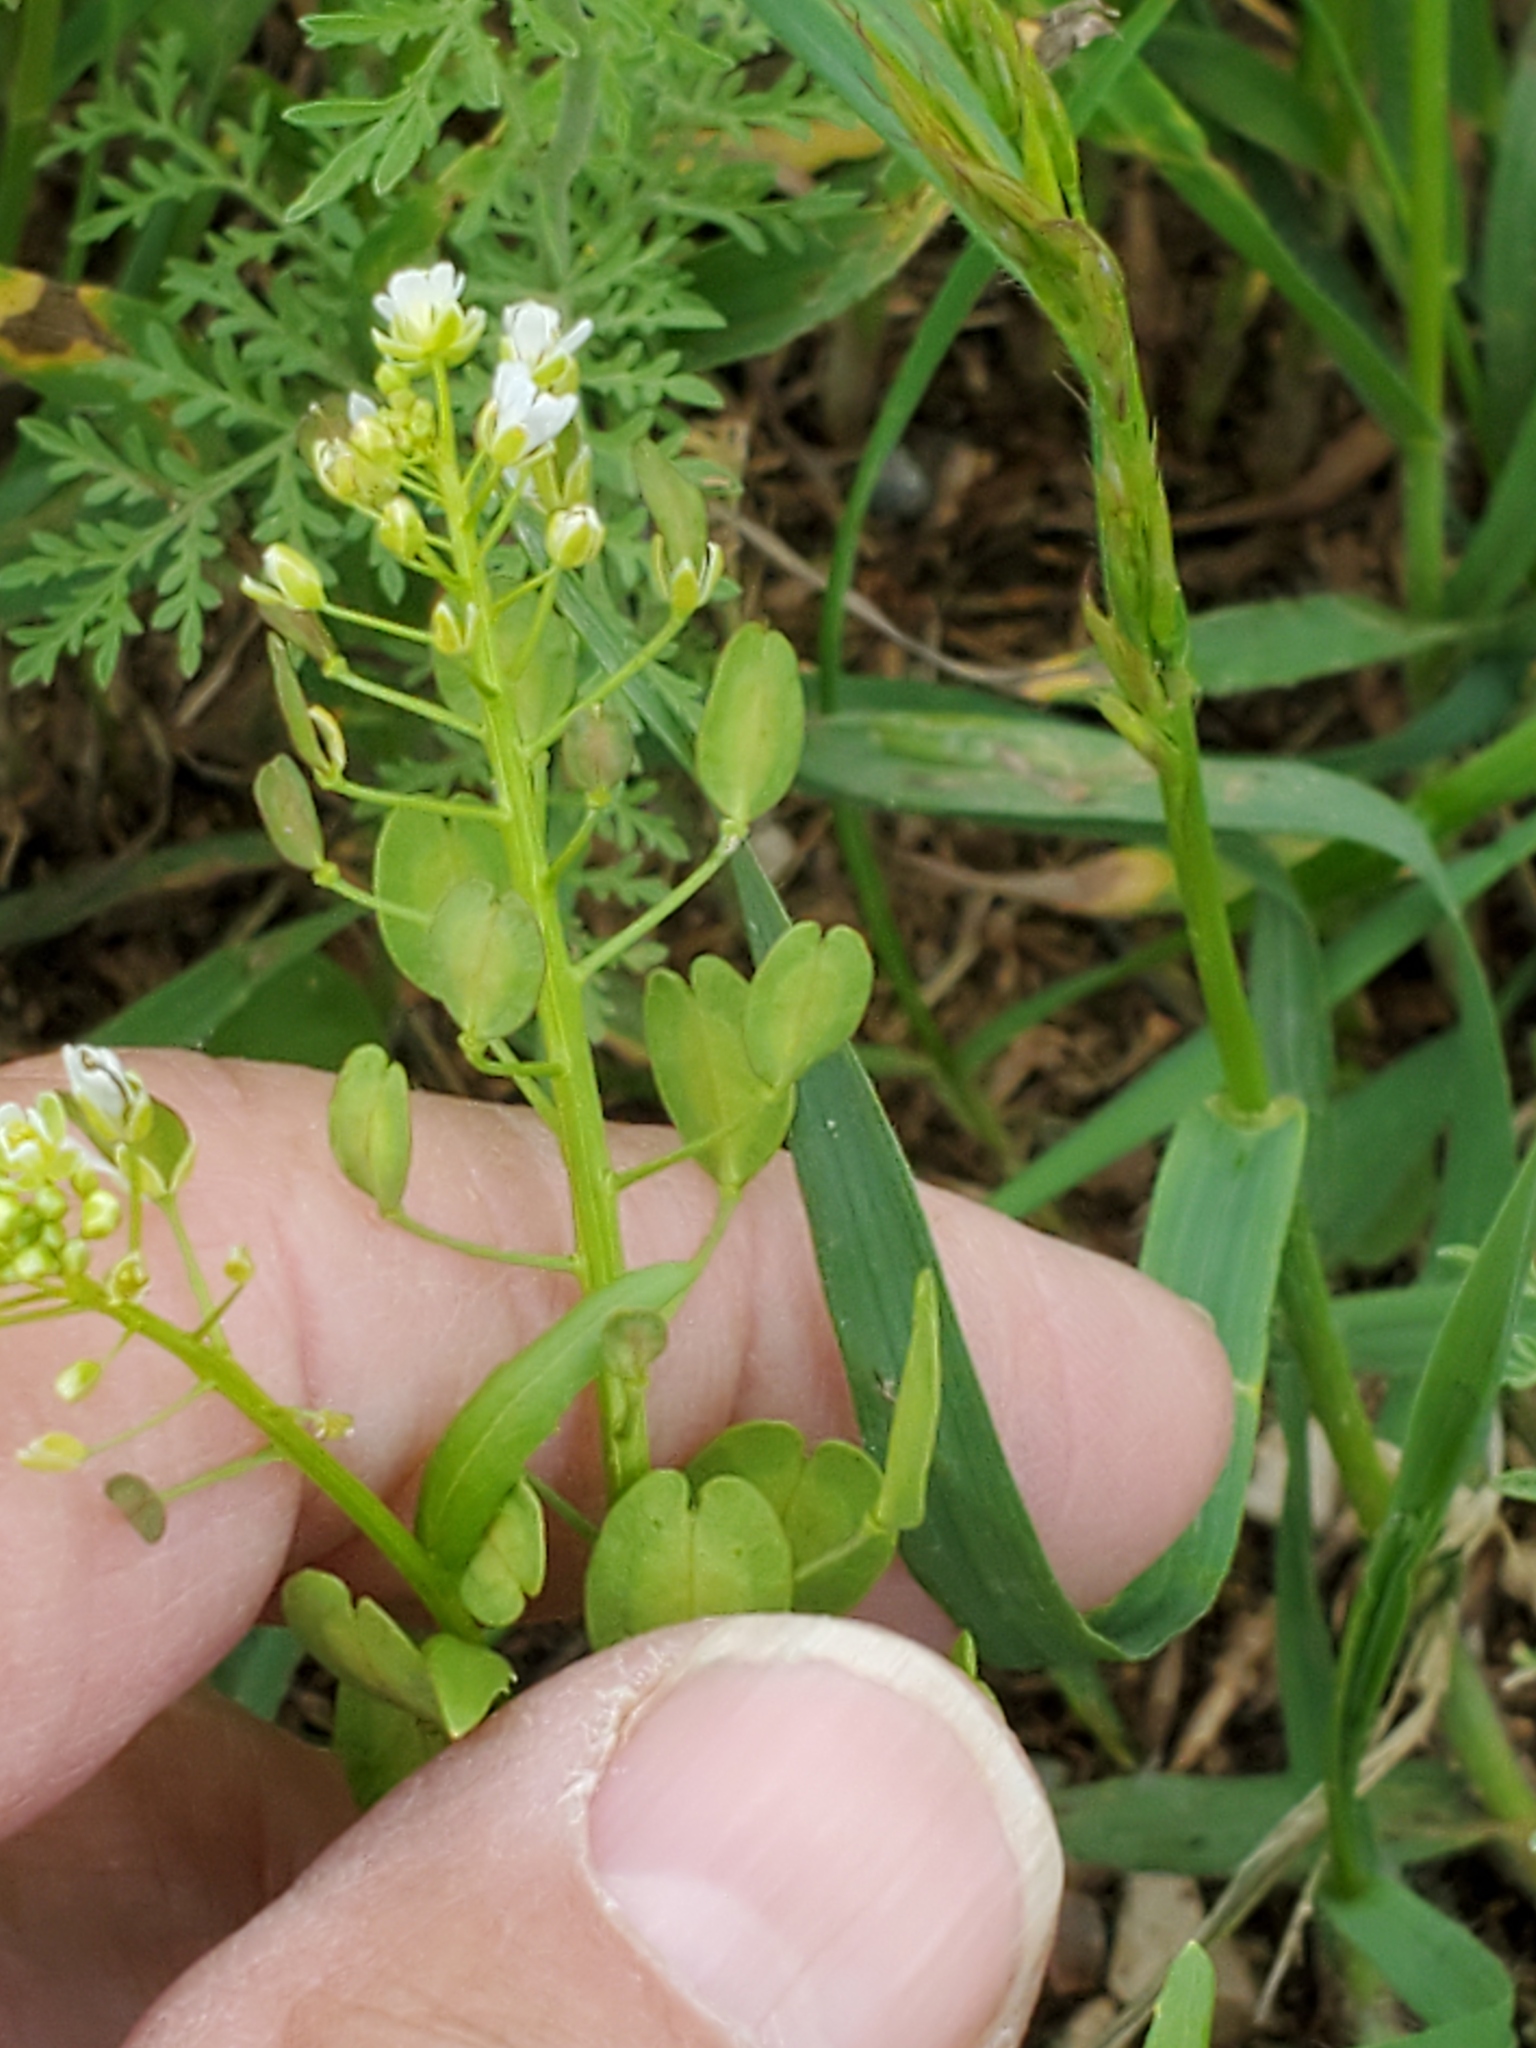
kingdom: Plantae
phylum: Tracheophyta
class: Magnoliopsida
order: Brassicales
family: Brassicaceae
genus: Thlaspi
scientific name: Thlaspi arvense
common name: Field pennycress
